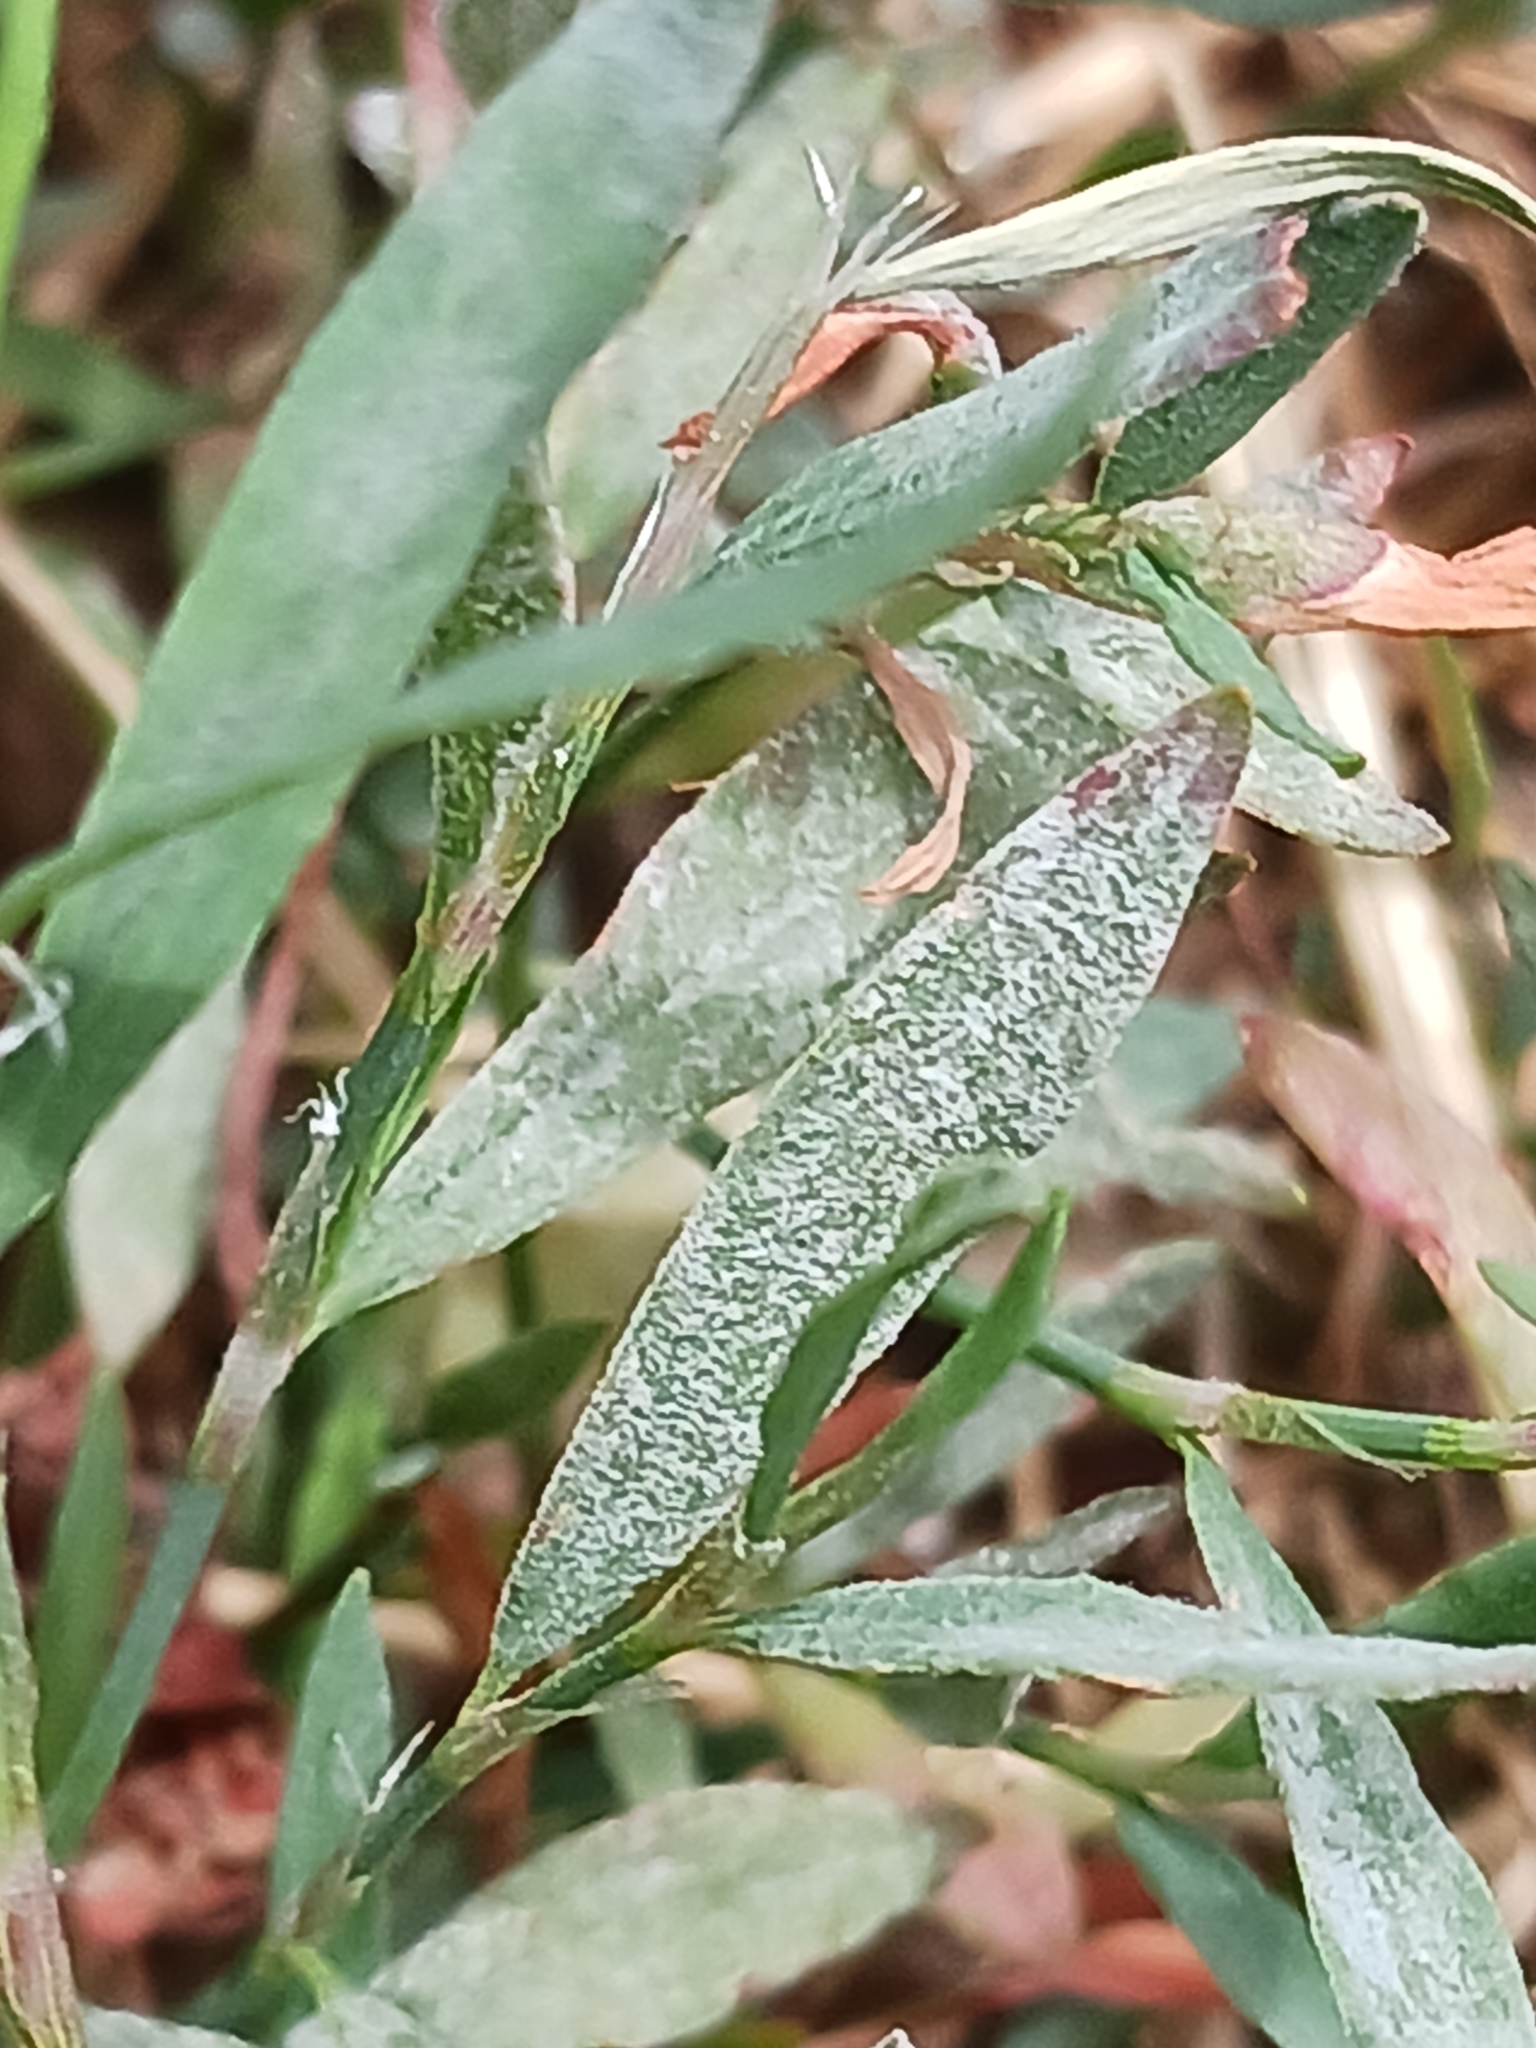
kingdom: Fungi
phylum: Ascomycota
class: Leotiomycetes
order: Helotiales
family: Erysiphaceae
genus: Erysiphe
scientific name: Erysiphe polygoni
